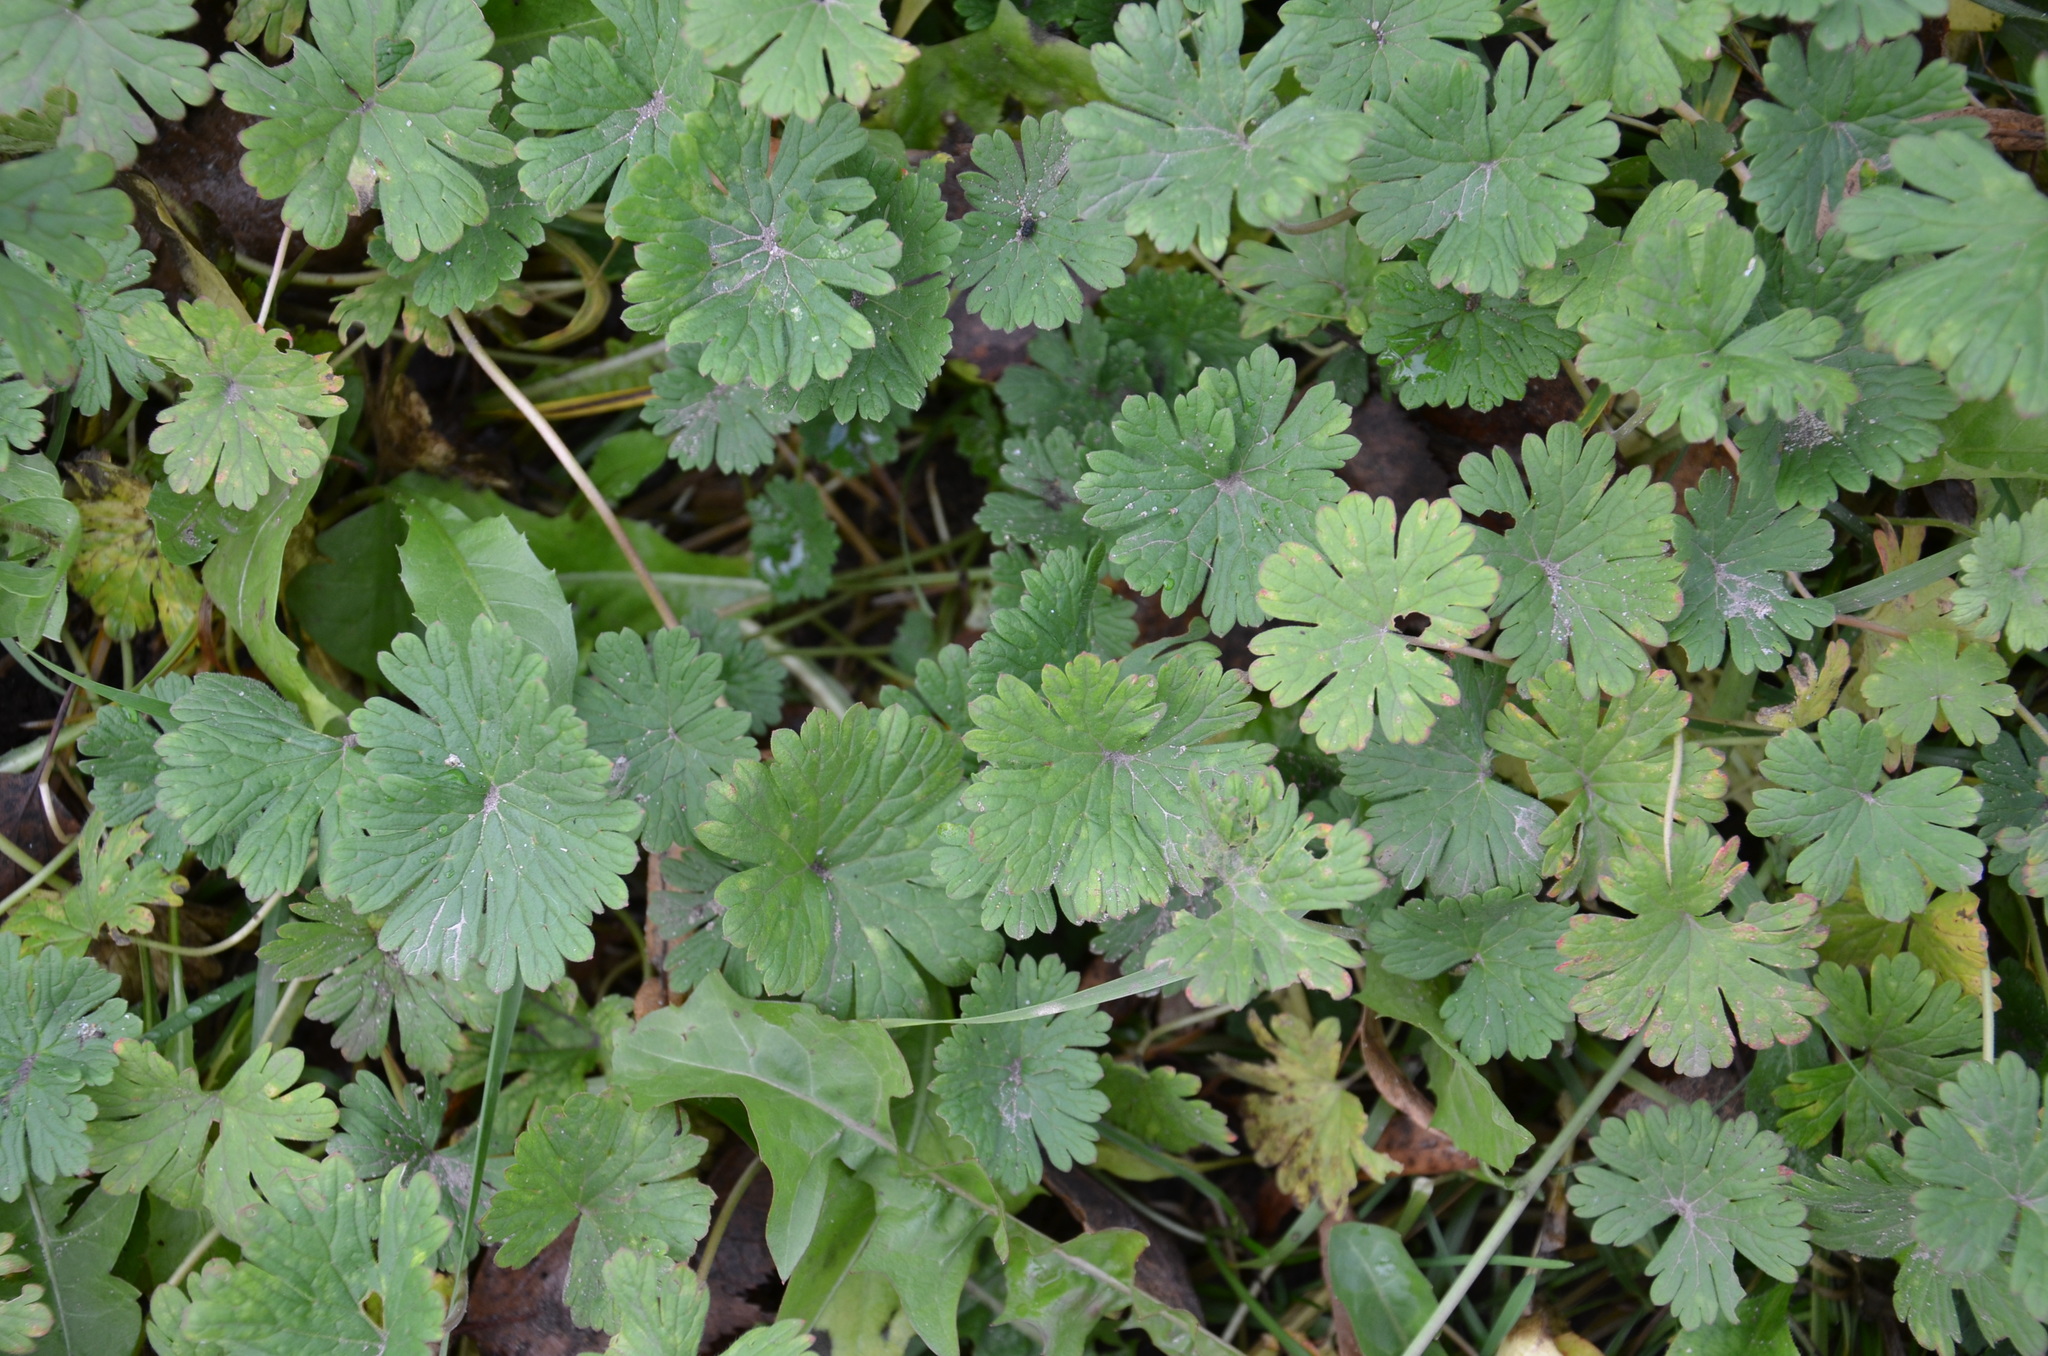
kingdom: Plantae
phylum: Tracheophyta
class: Magnoliopsida
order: Geraniales
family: Geraniaceae
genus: Geranium
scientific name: Geranium pusillum
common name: Small geranium
